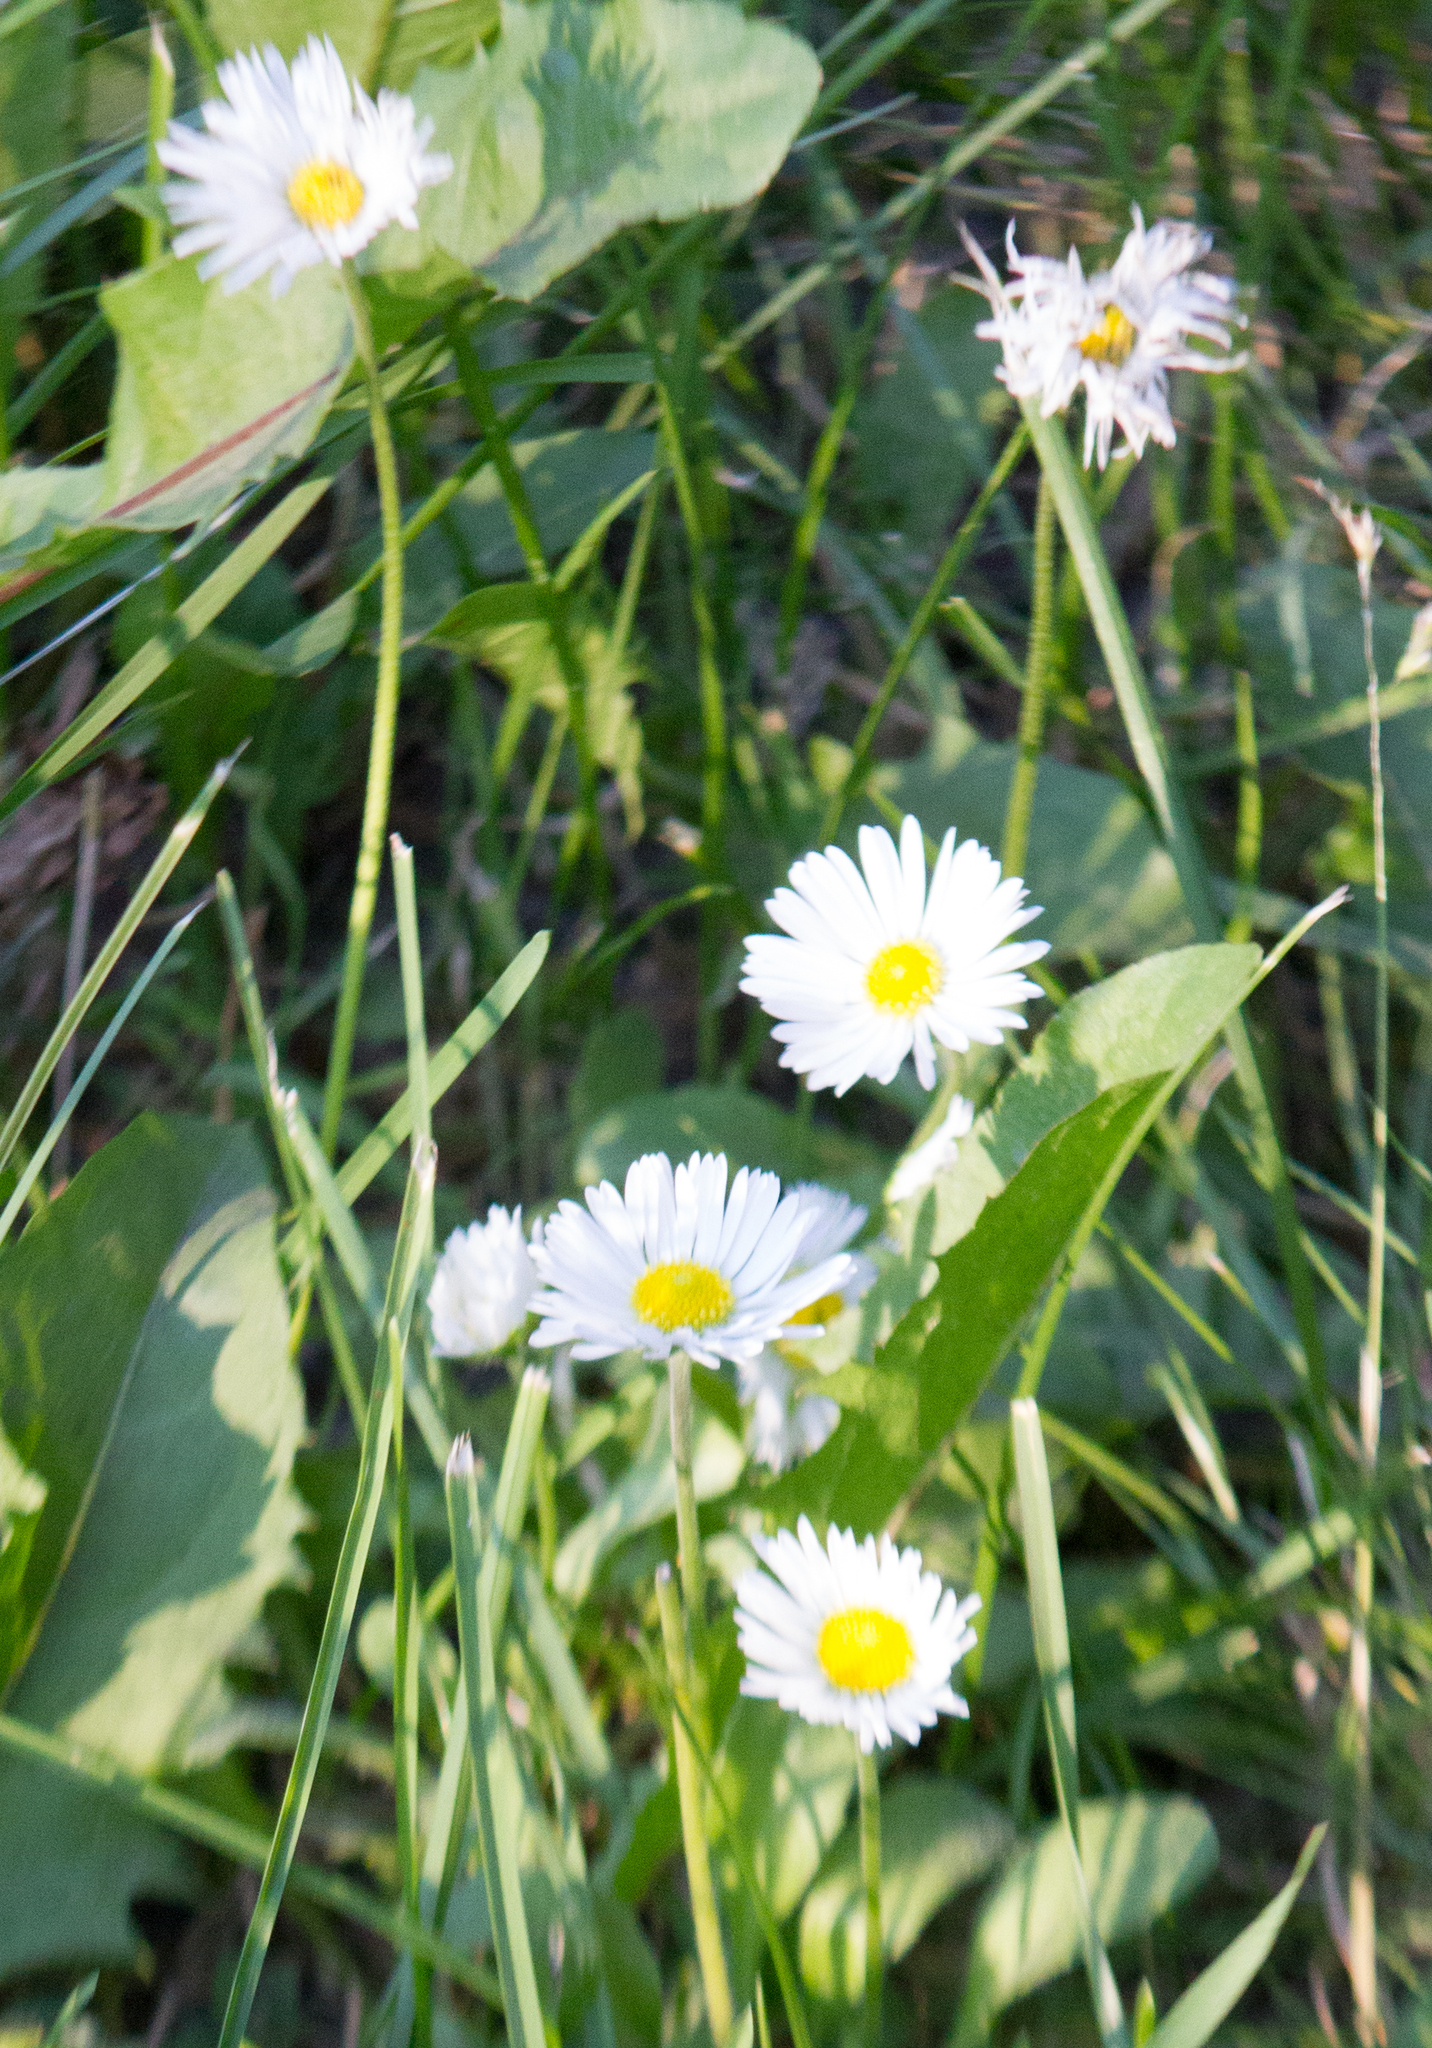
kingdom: Plantae
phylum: Tracheophyta
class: Magnoliopsida
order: Asterales
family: Asteraceae
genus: Bellis
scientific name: Bellis perennis
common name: Lawndaisy
